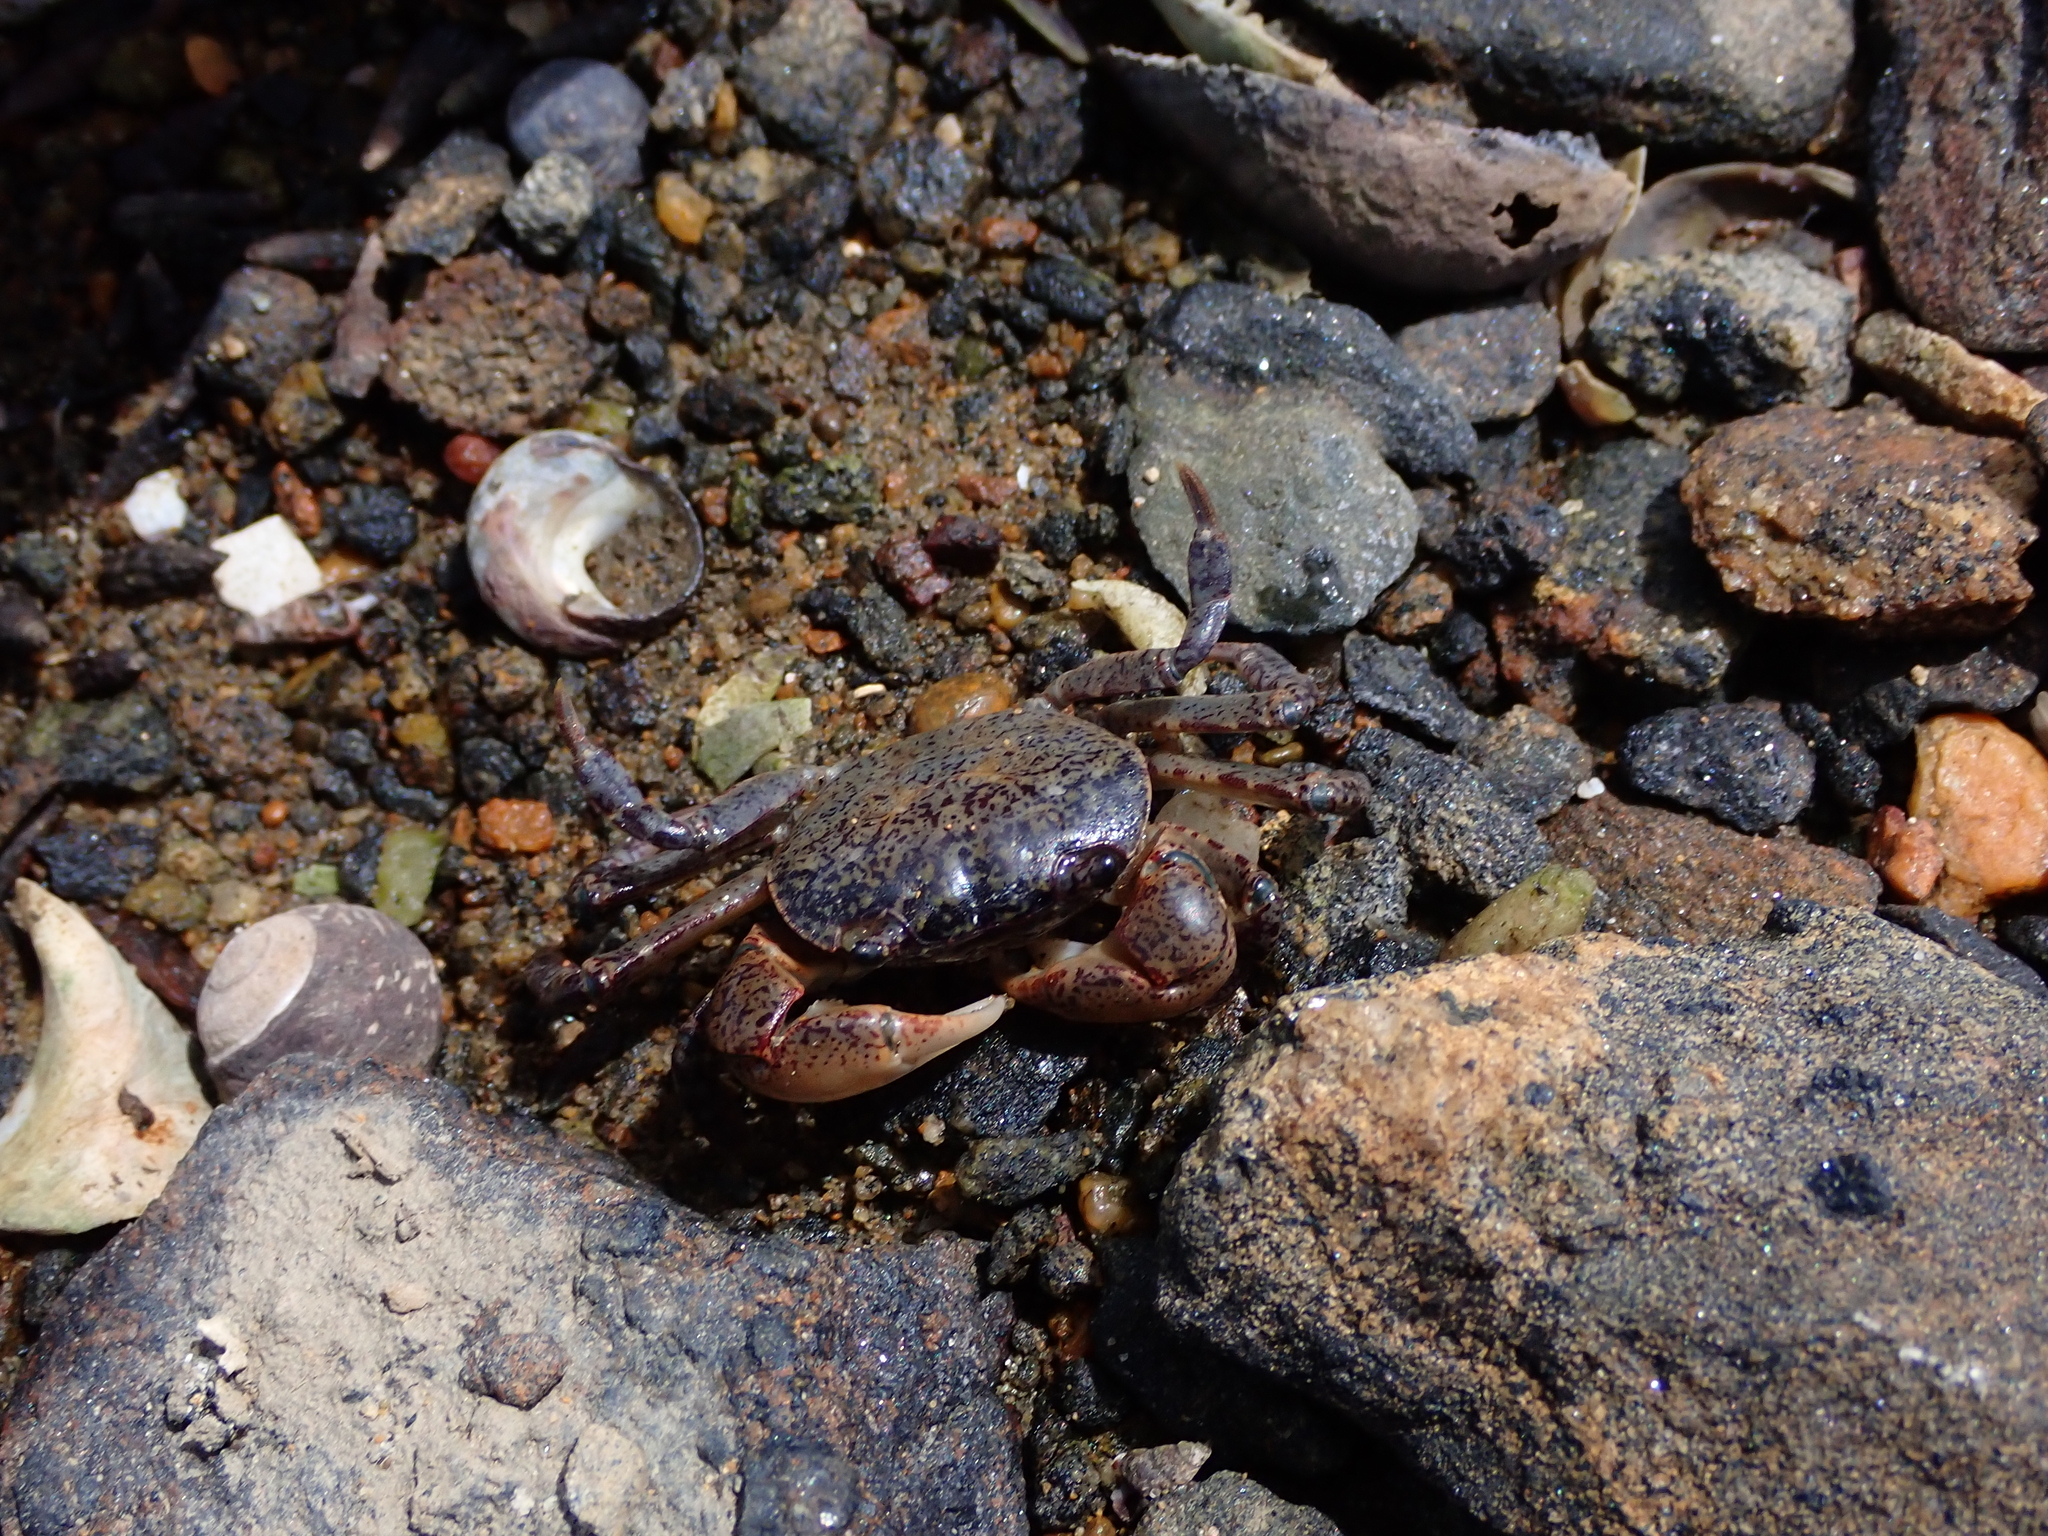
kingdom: Animalia
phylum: Arthropoda
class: Malacostraca
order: Decapoda
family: Varunidae
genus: Cyclograpsus
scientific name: Cyclograpsus lavauxi
